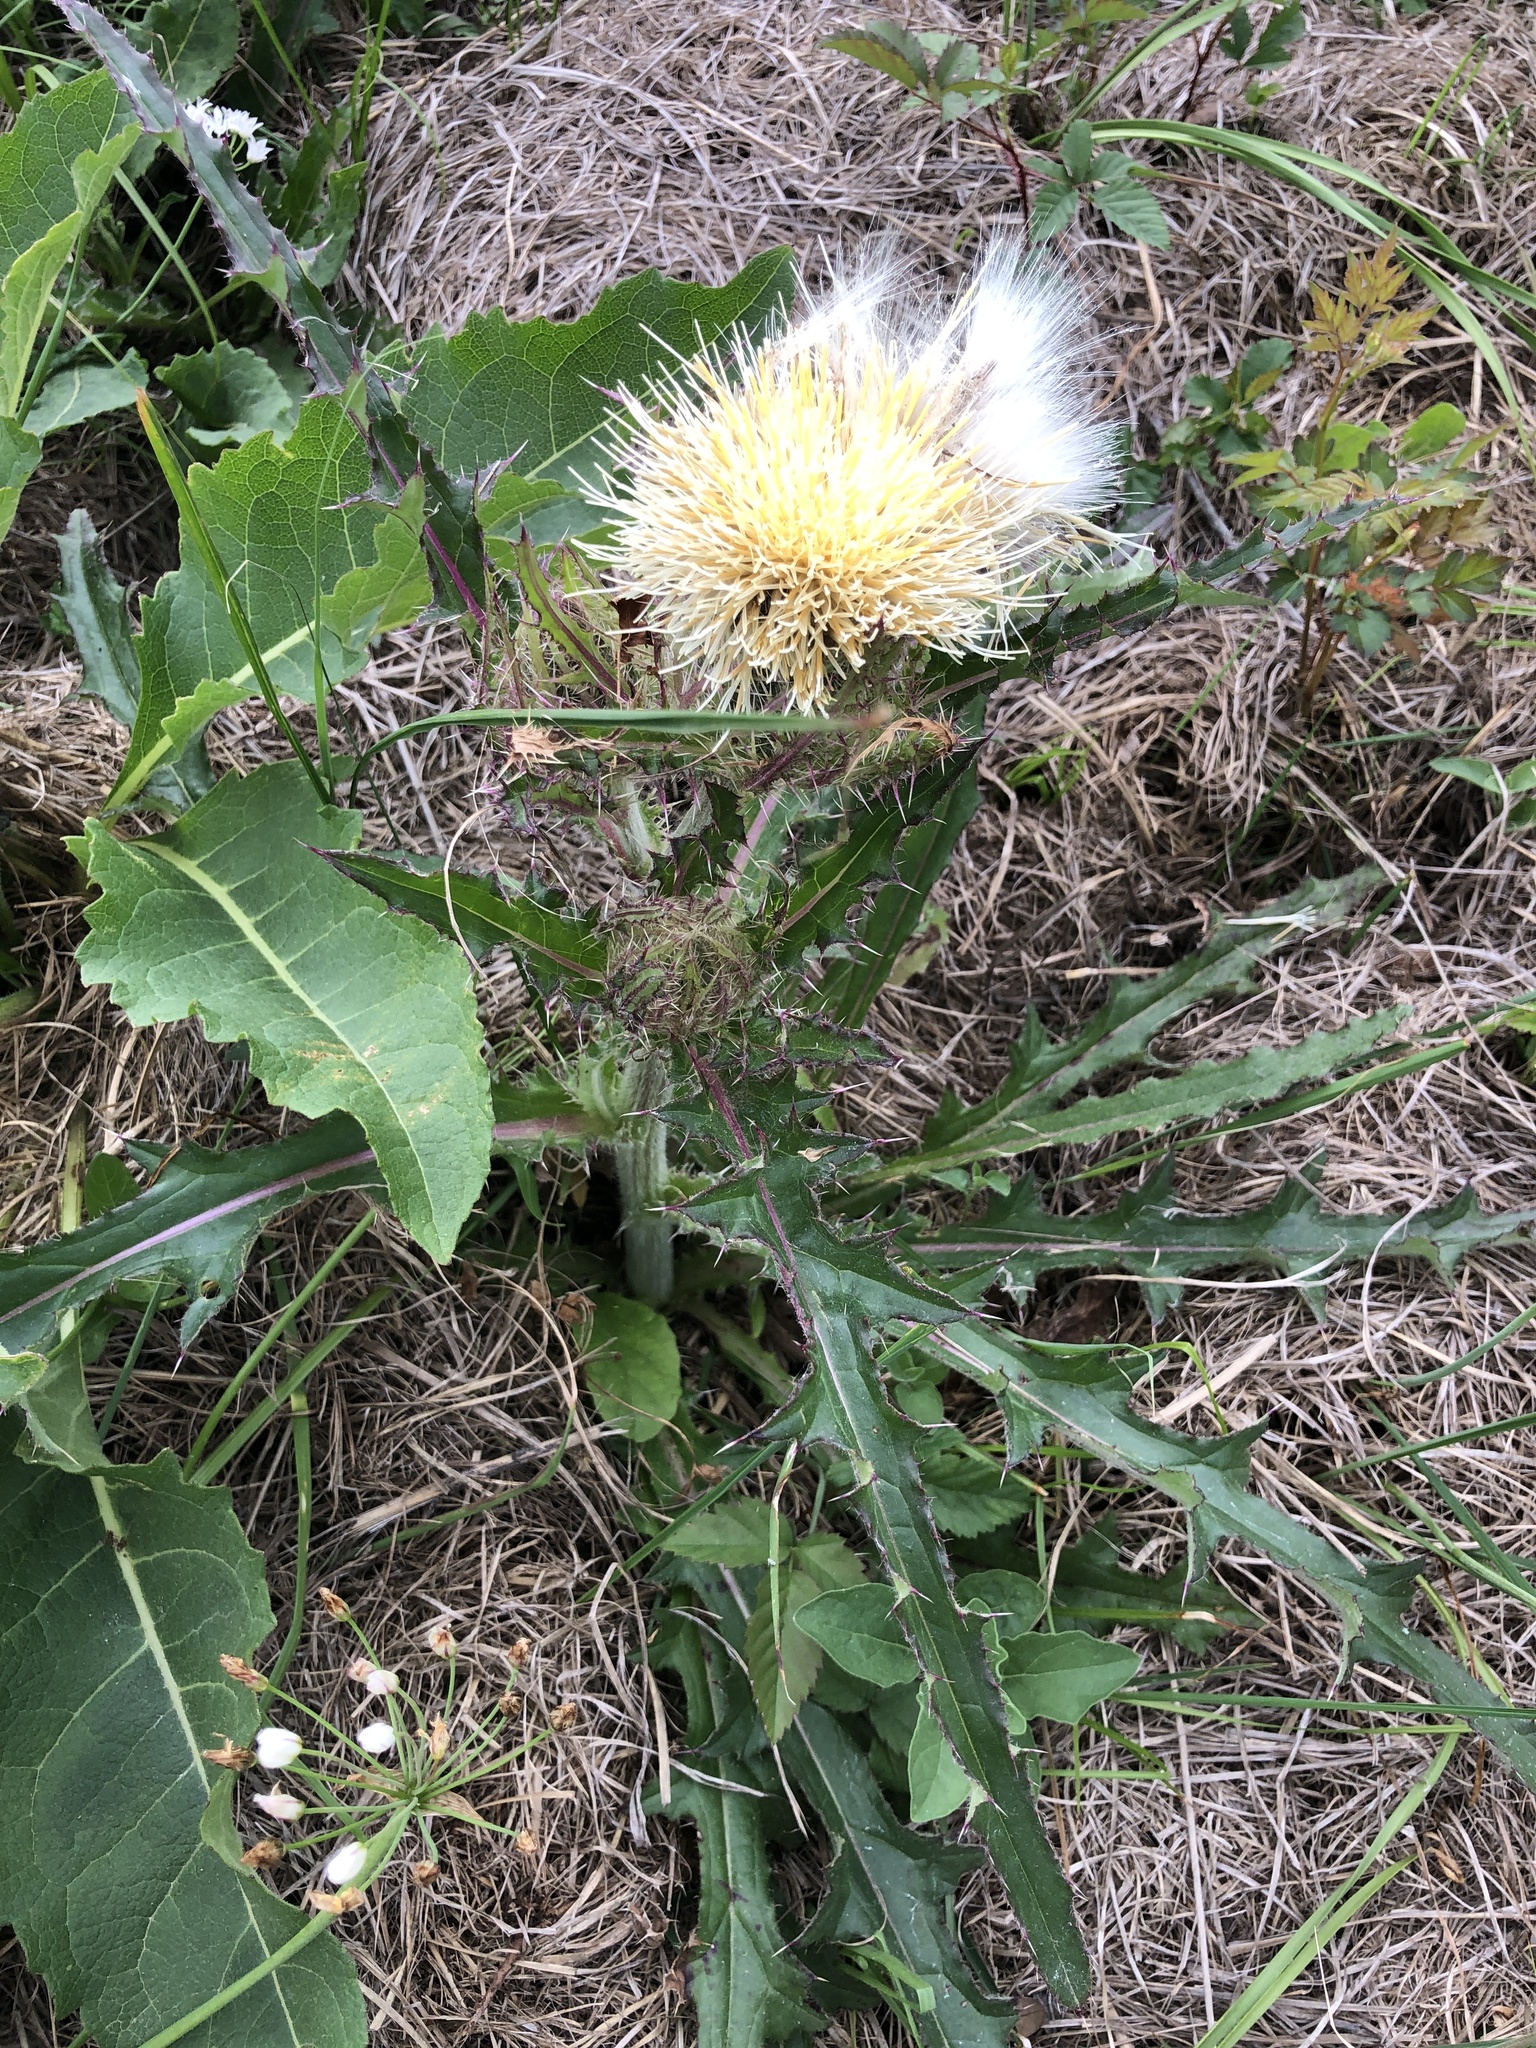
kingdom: Plantae
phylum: Tracheophyta
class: Magnoliopsida
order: Asterales
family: Asteraceae
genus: Cirsium
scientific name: Cirsium horridulum
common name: Bristly thistle
